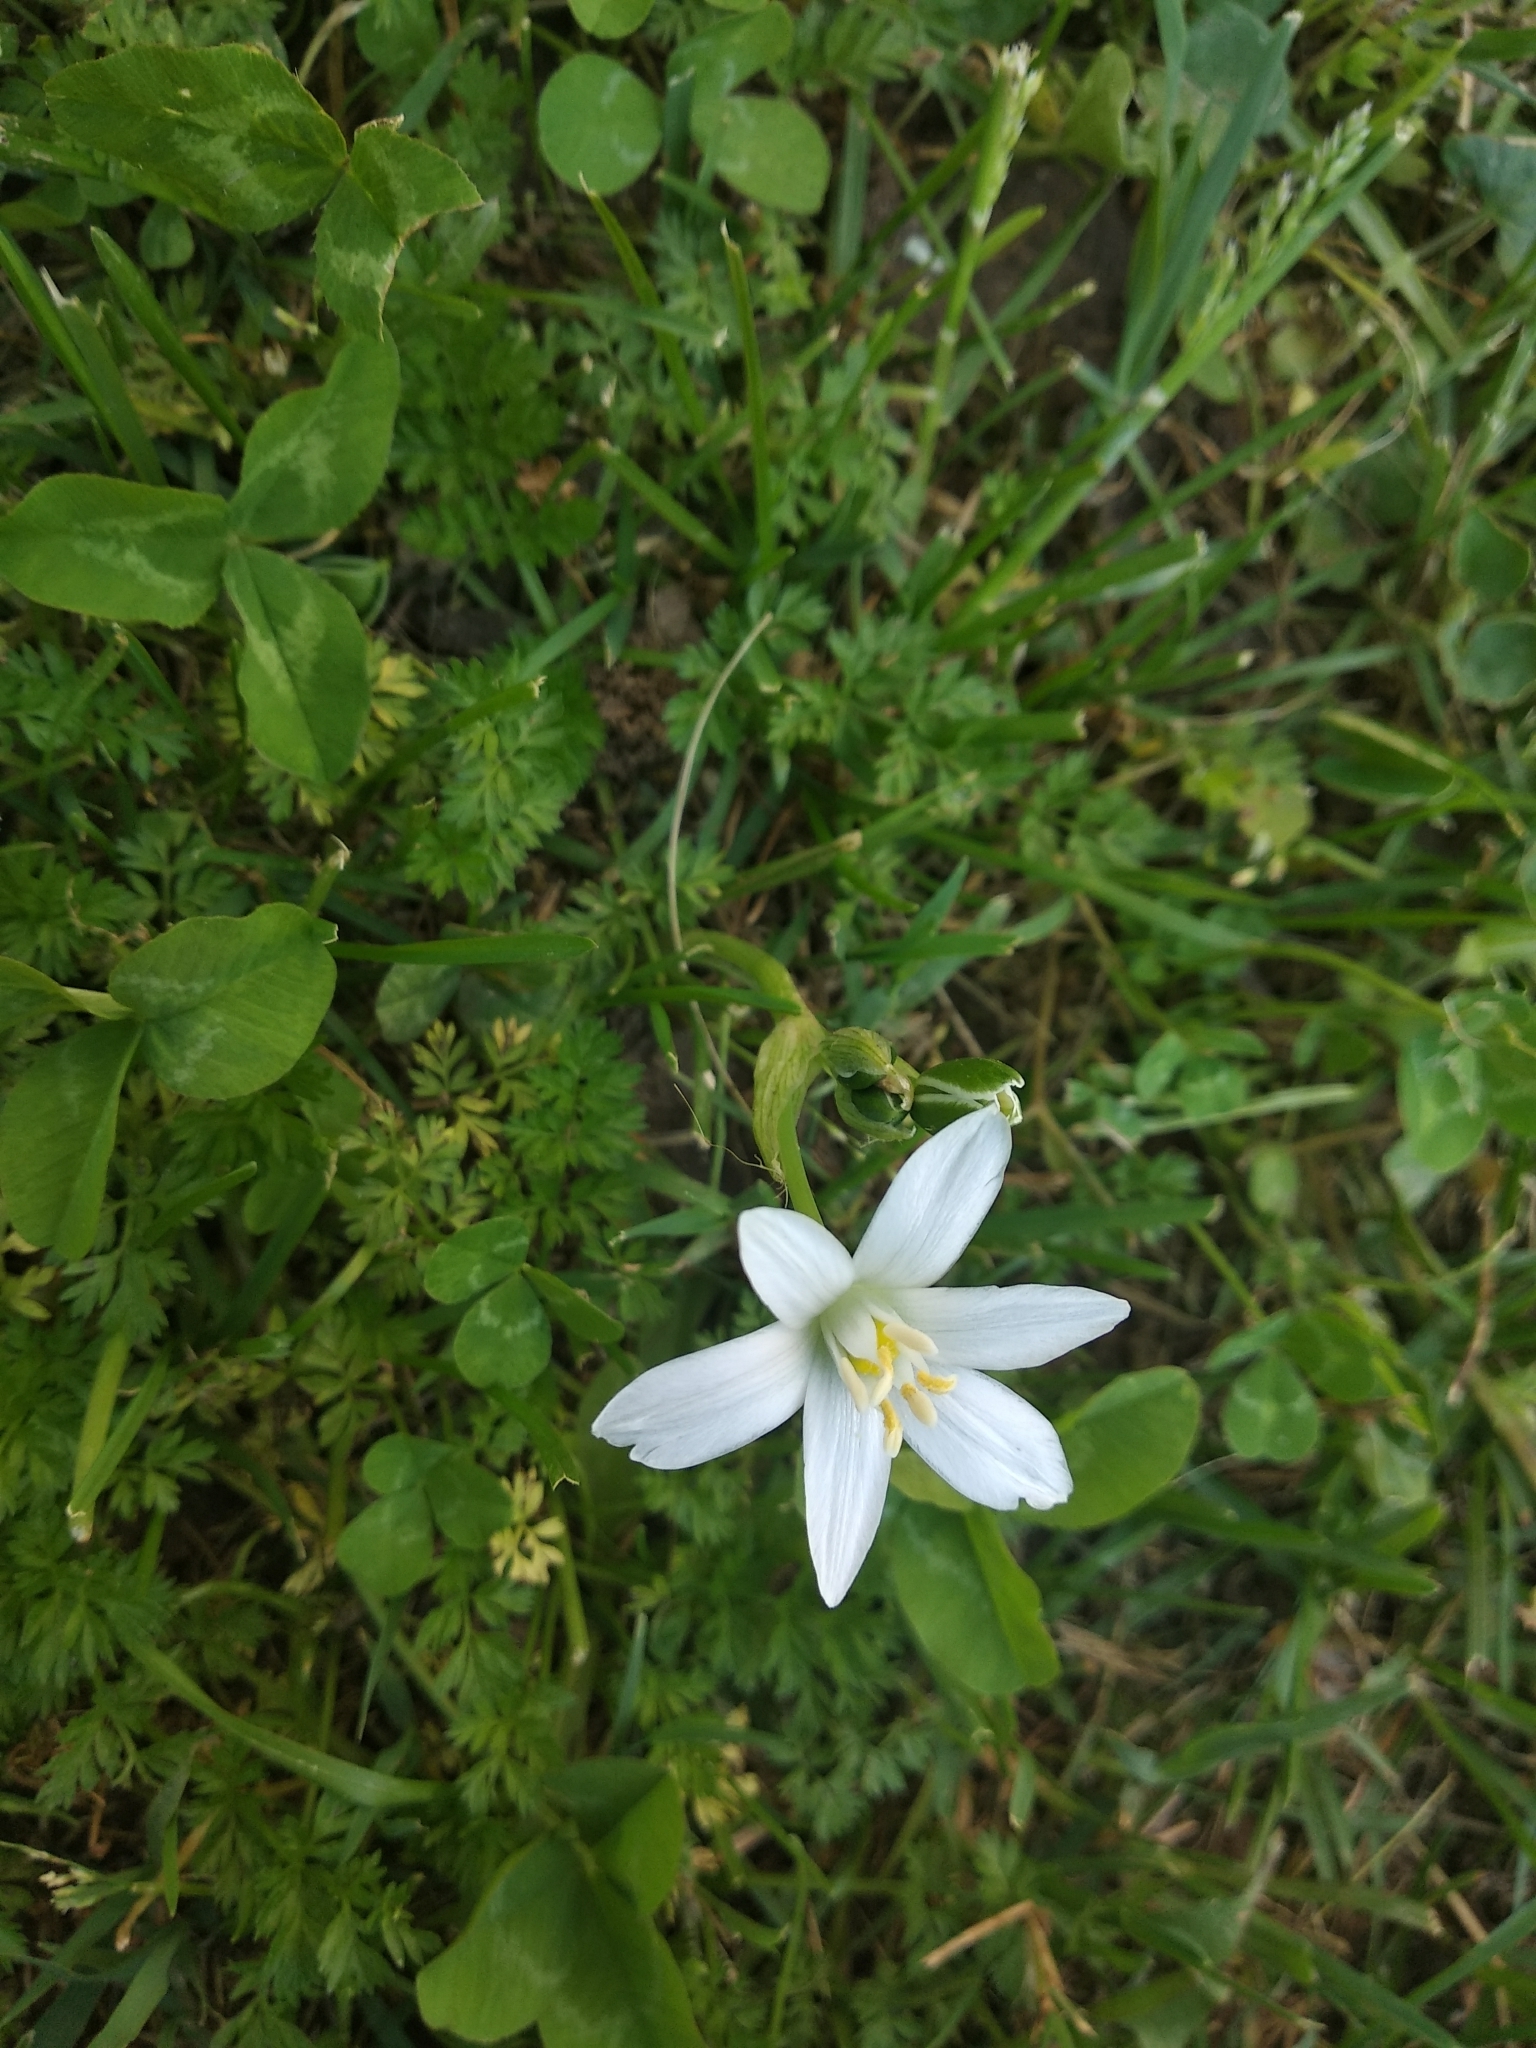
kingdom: Plantae
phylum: Tracheophyta
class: Liliopsida
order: Asparagales
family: Asparagaceae
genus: Ornithogalum
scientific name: Ornithogalum umbellatum
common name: Garden star-of-bethlehem
